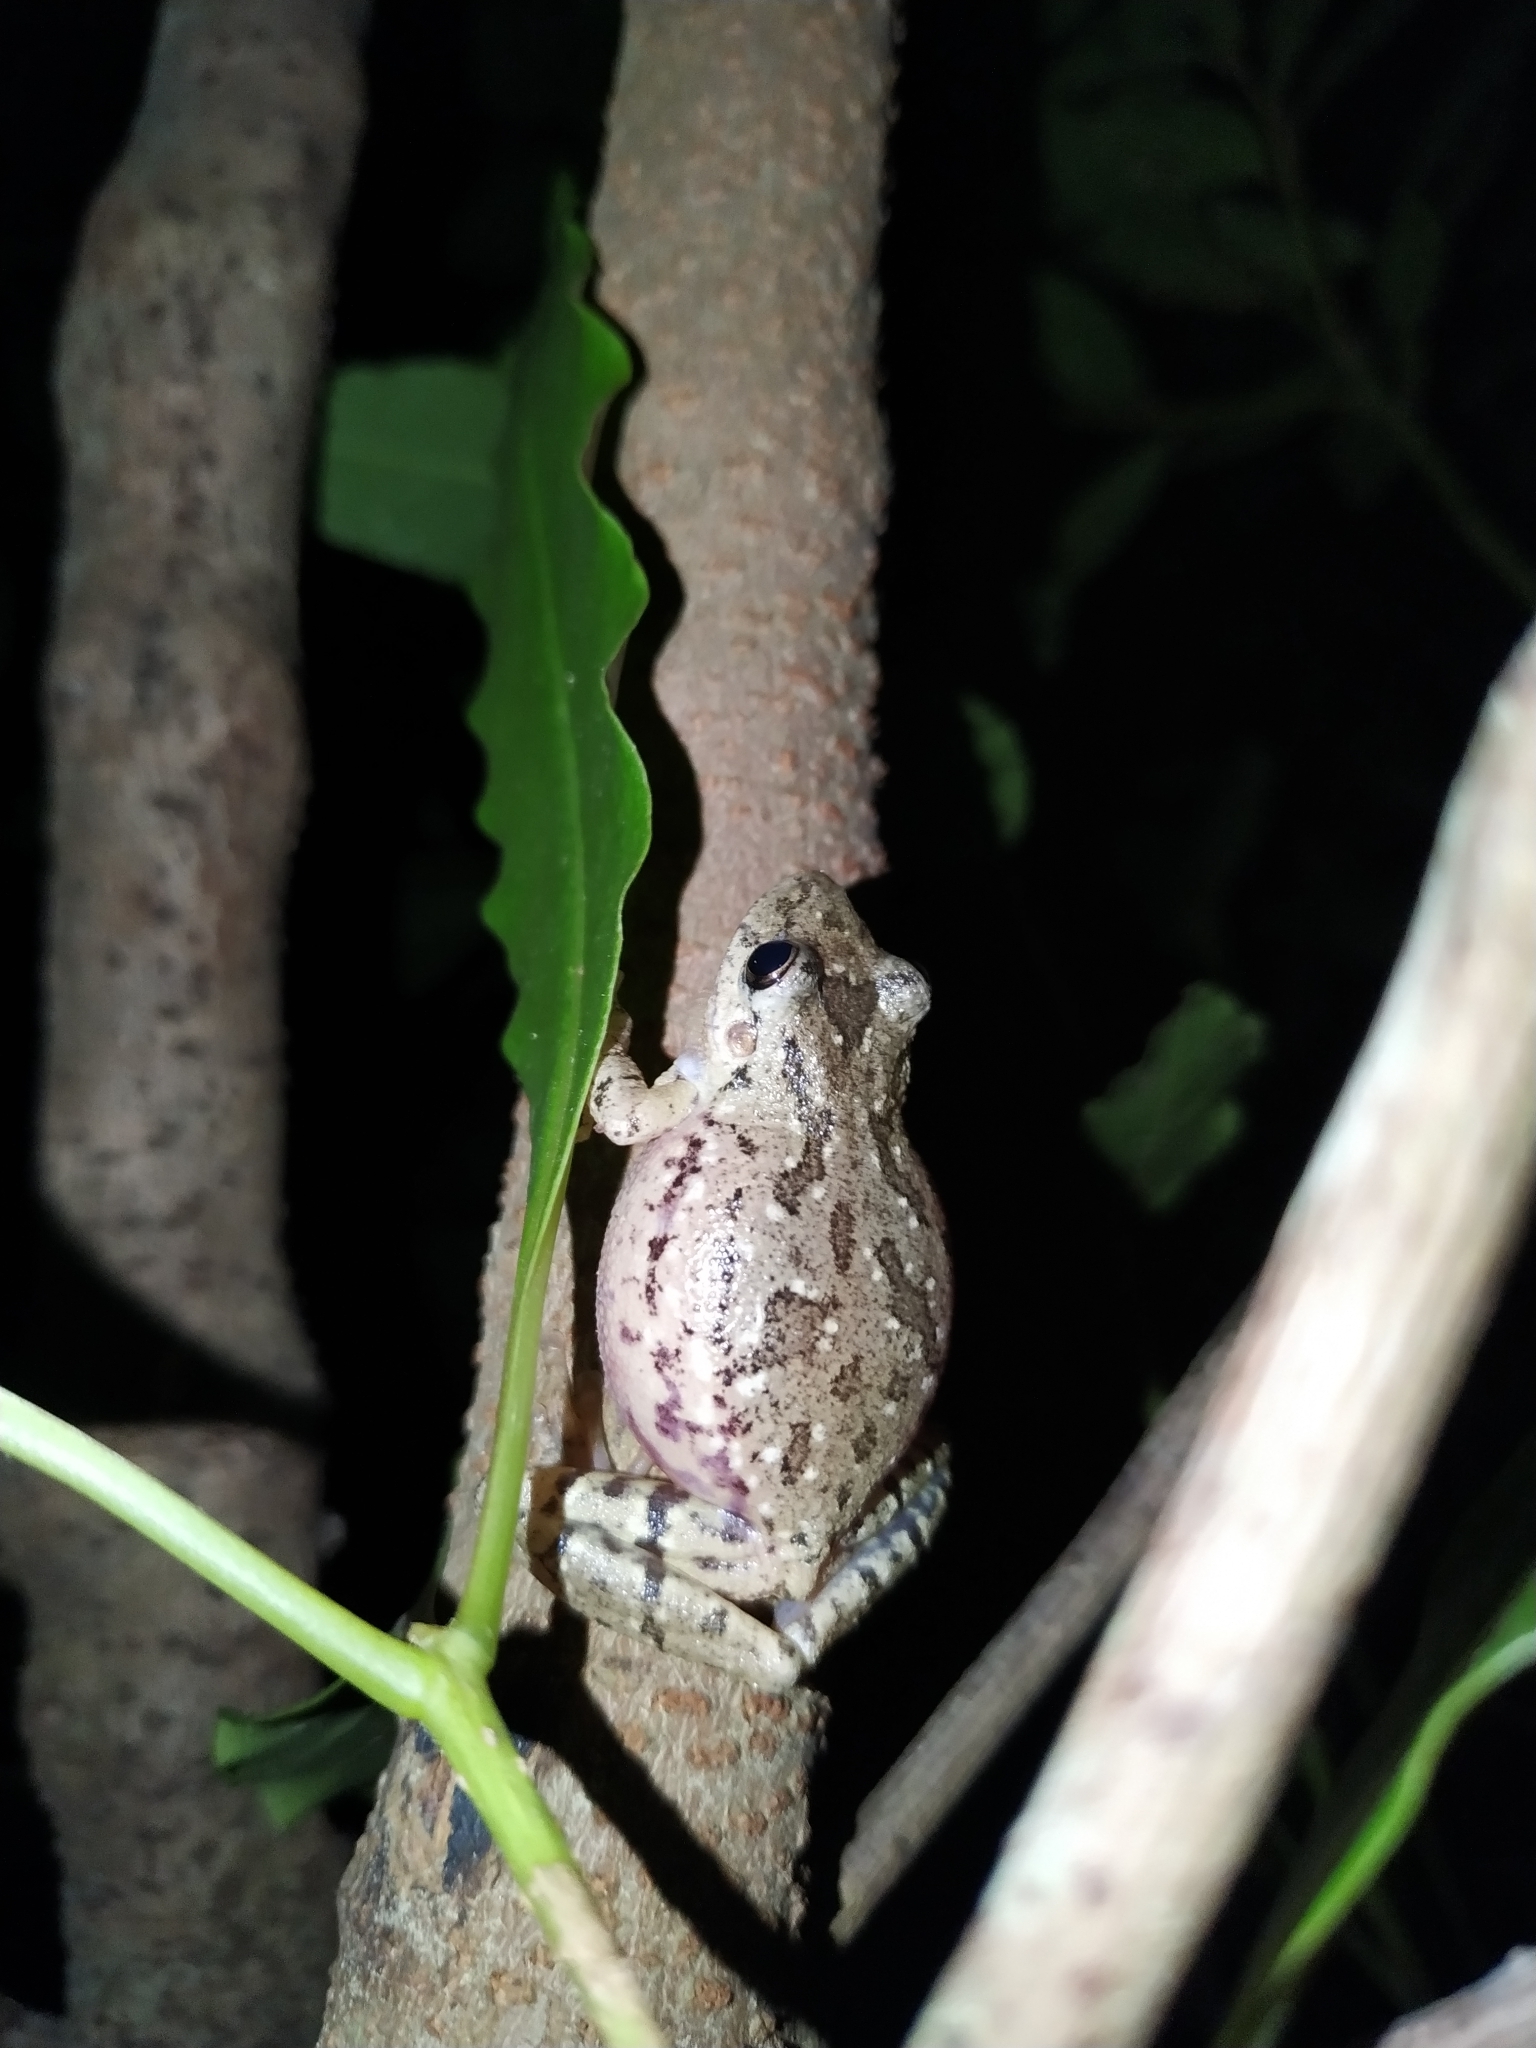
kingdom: Animalia
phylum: Chordata
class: Amphibia
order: Anura
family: Hylidae
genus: Scinax
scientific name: Scinax granulatus
